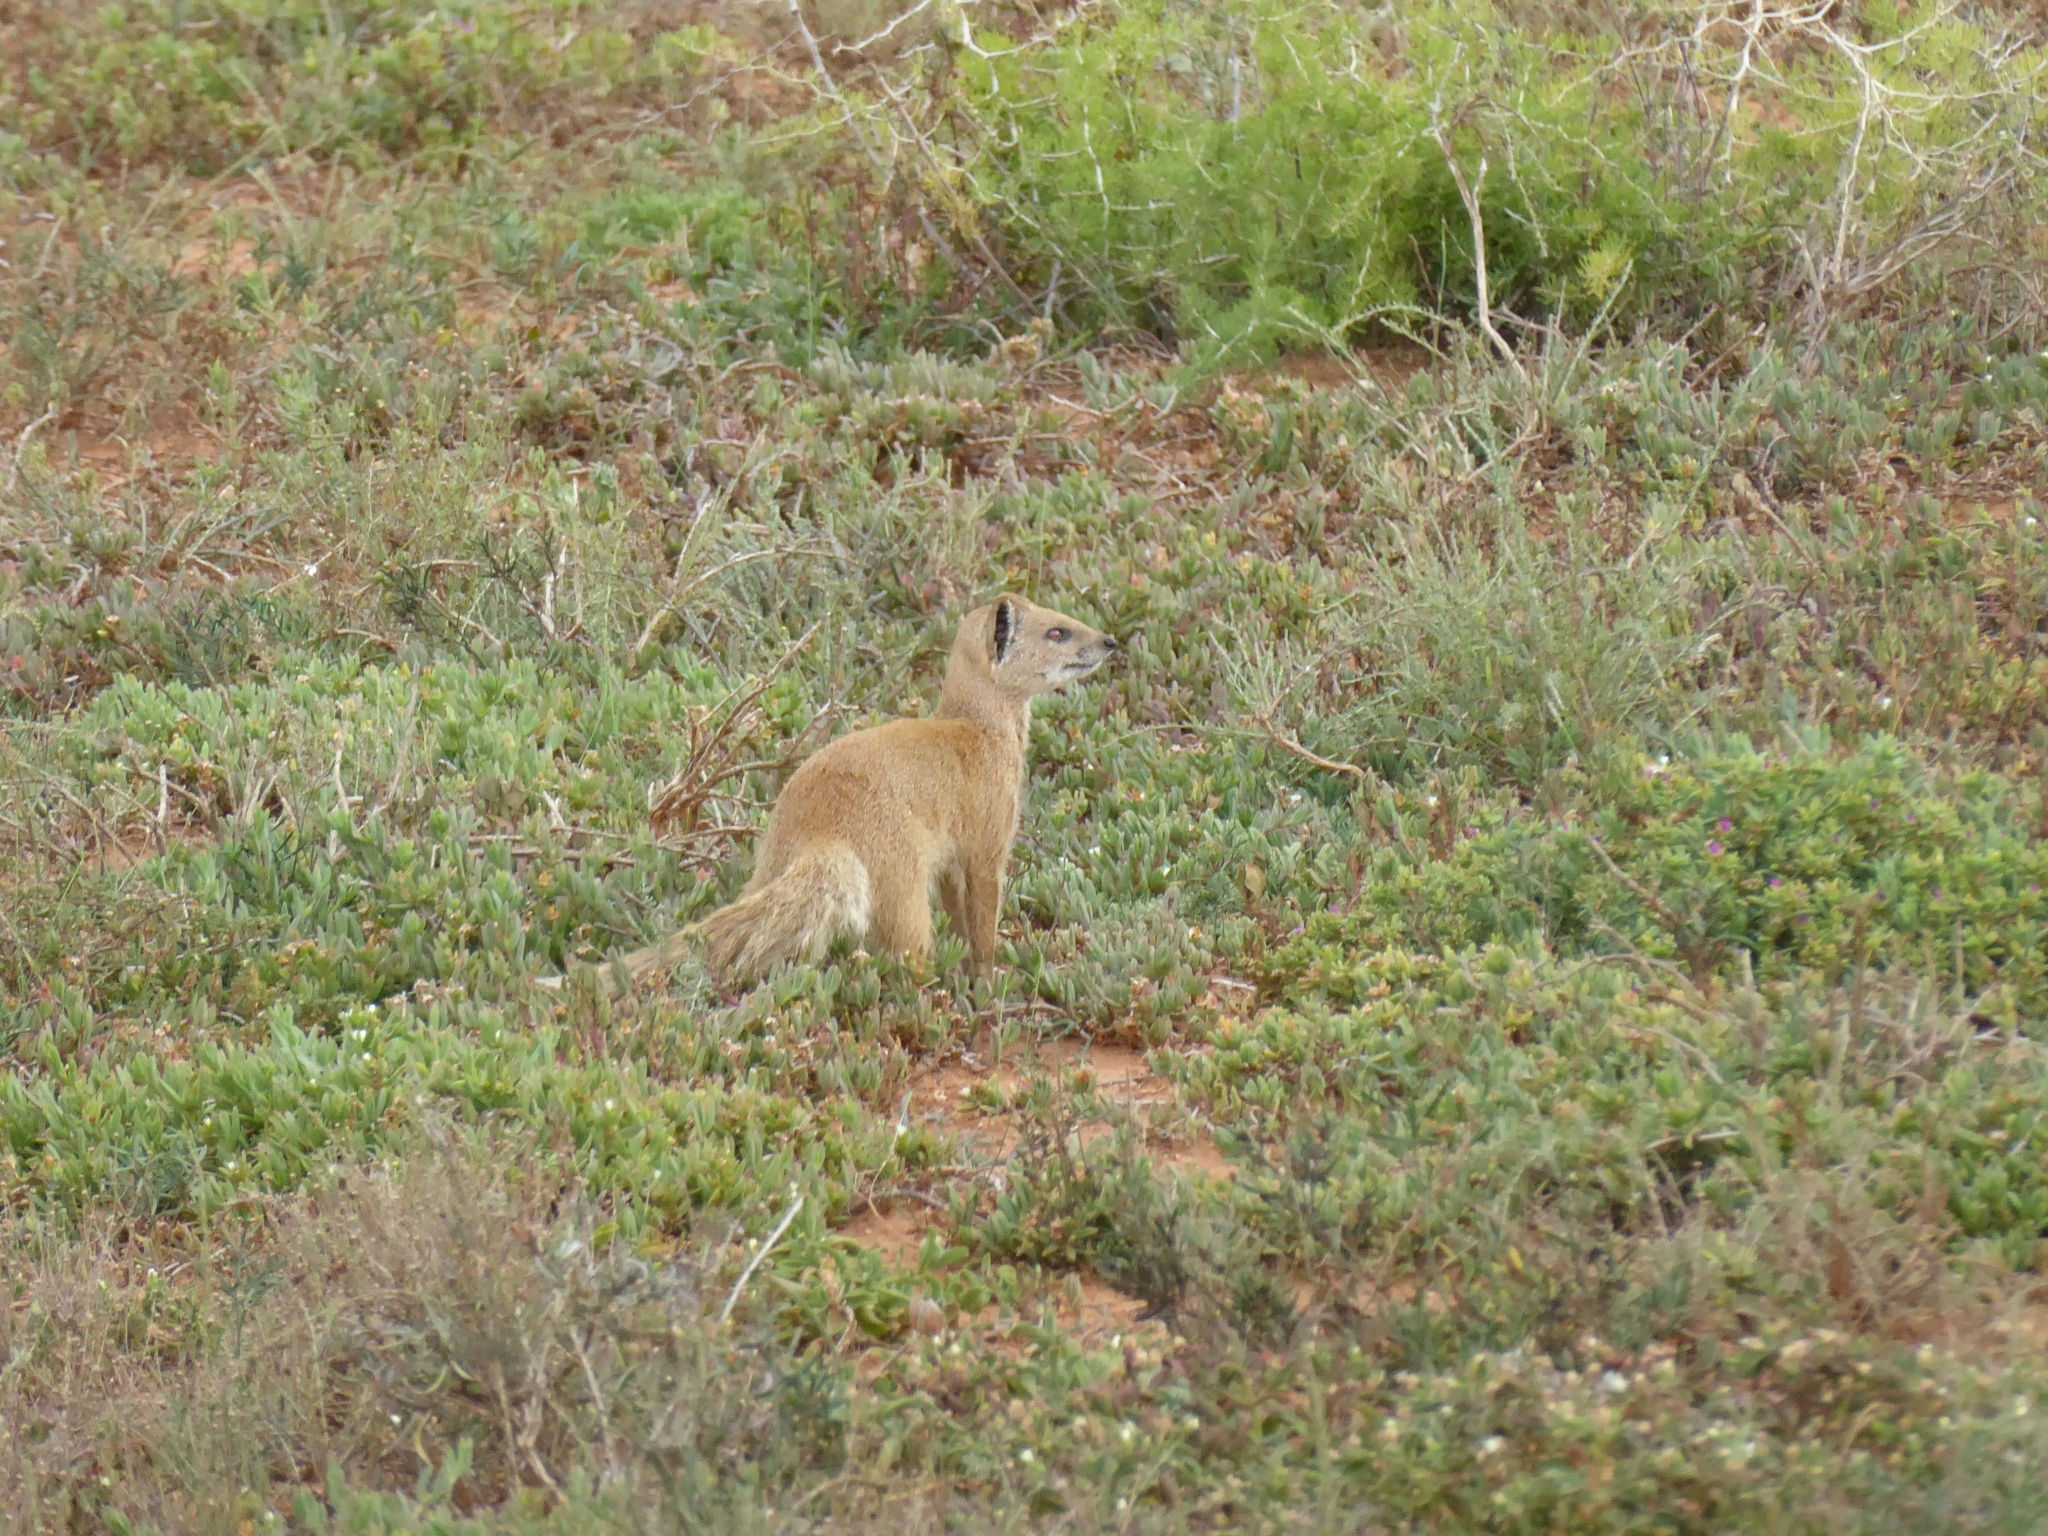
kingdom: Animalia
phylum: Chordata
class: Mammalia
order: Carnivora
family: Herpestidae
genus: Cynictis
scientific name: Cynictis penicillata
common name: Yellow mongoose
